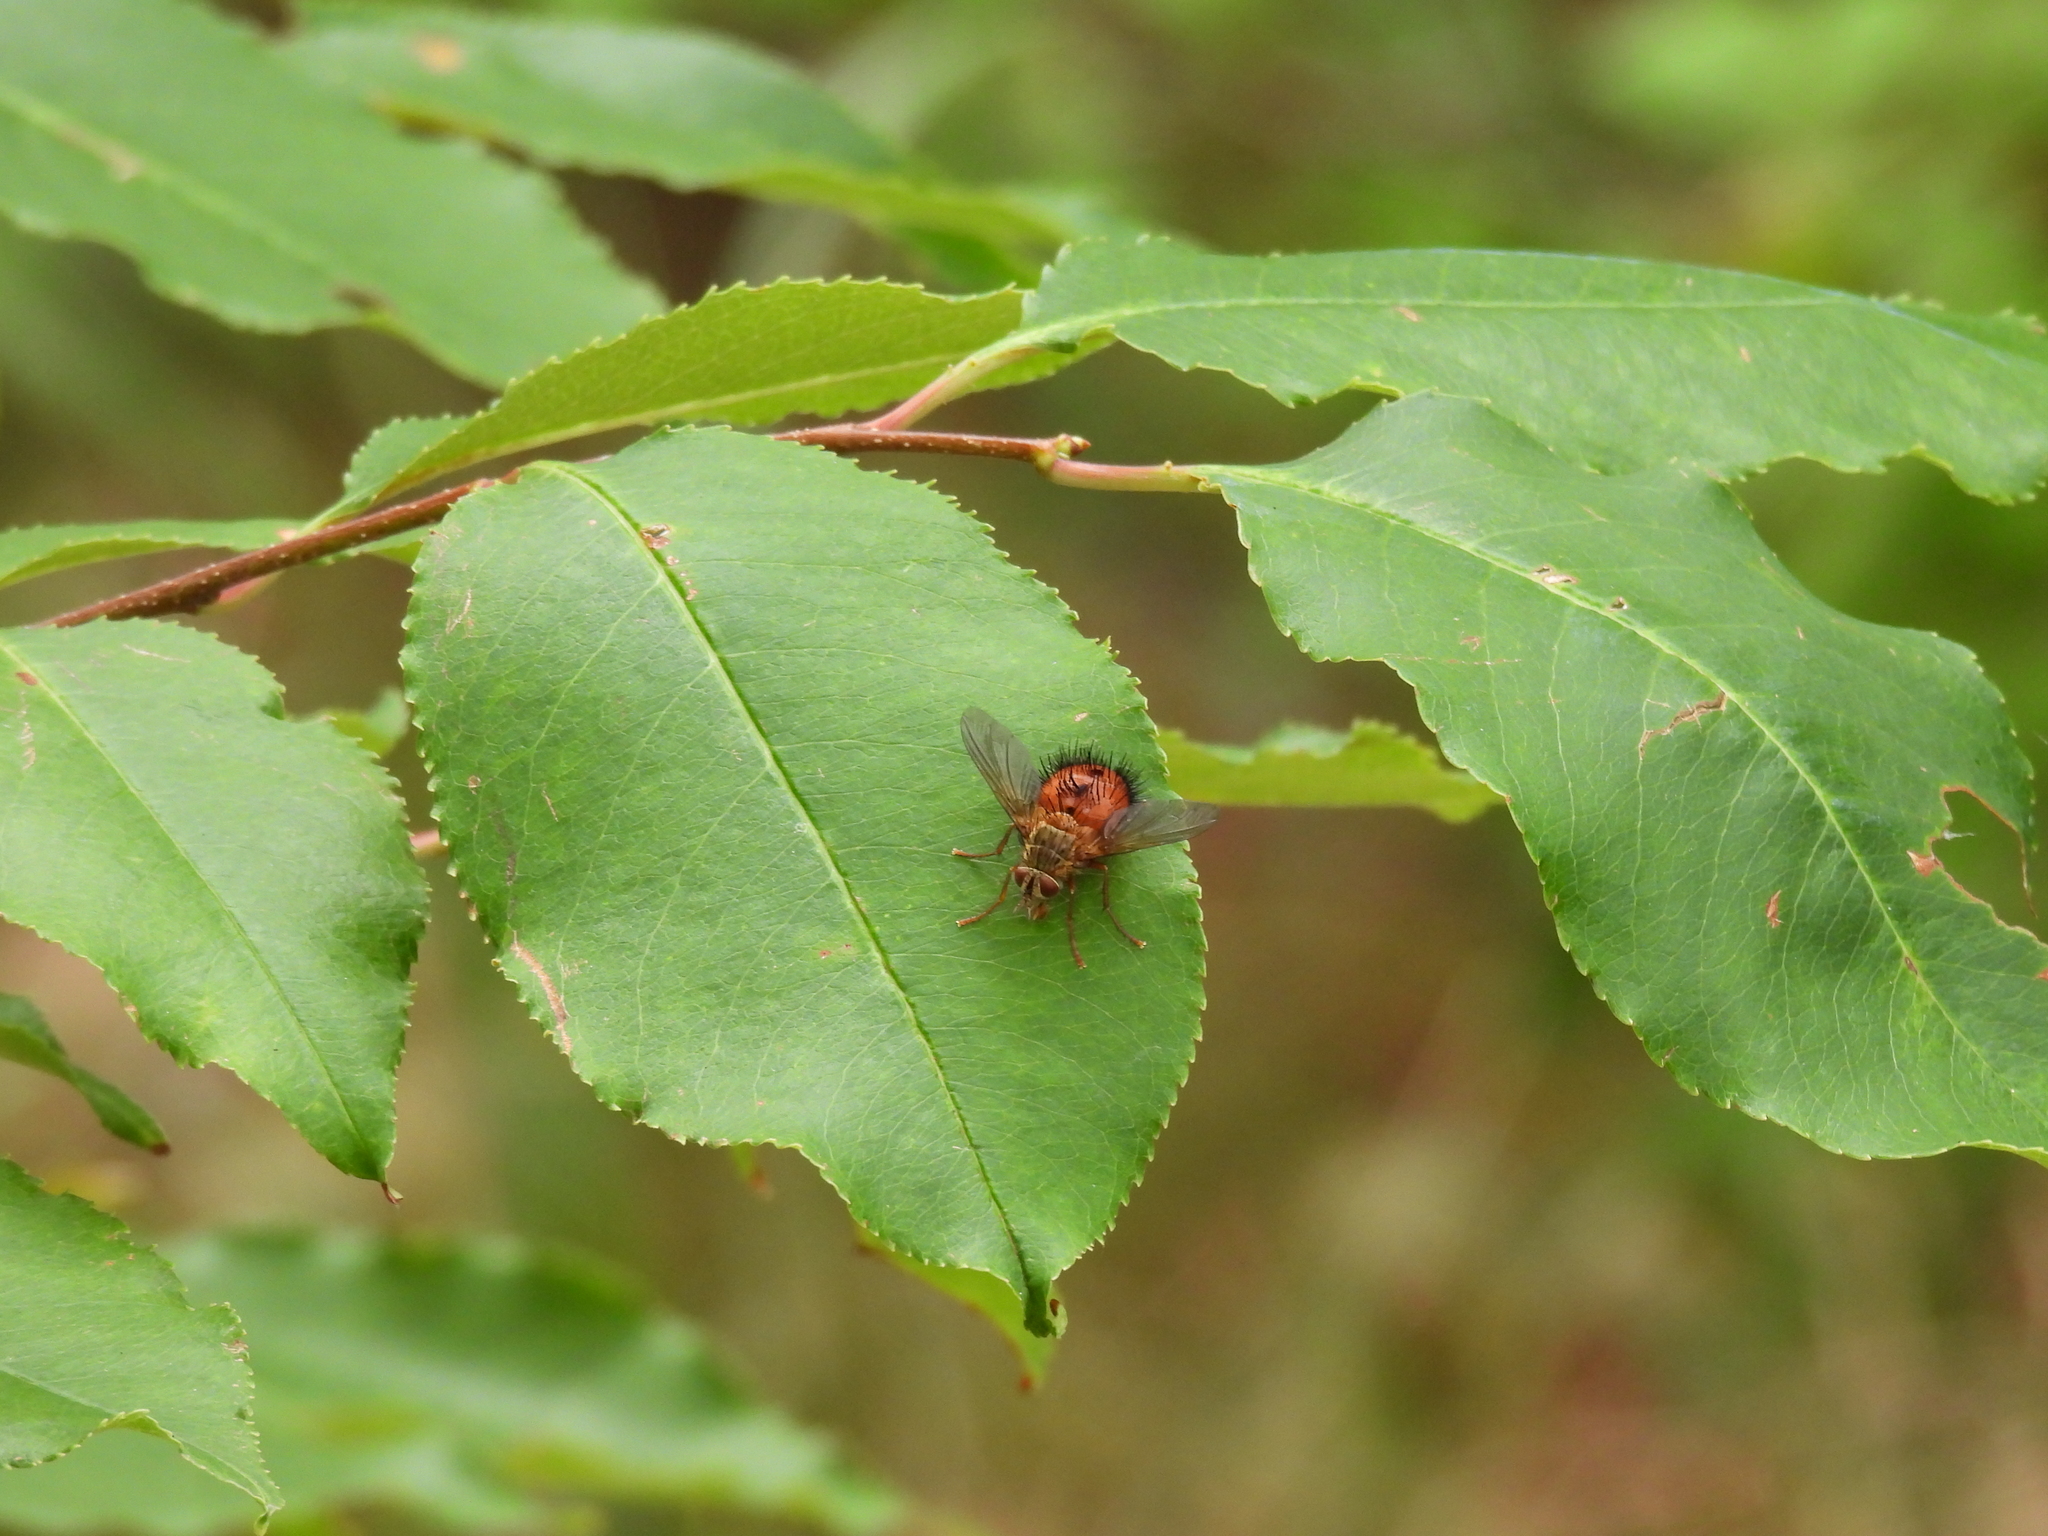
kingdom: Animalia
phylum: Arthropoda
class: Insecta
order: Diptera
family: Tachinidae
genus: Hystricia
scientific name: Hystricia abrupta
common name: Tomato bristle fly
